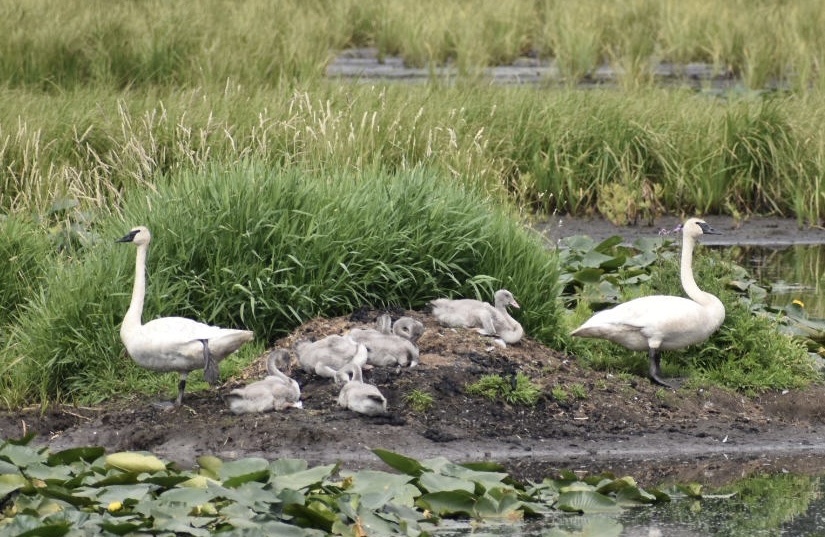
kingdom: Animalia
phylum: Chordata
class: Aves
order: Anseriformes
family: Anatidae
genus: Cygnus
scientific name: Cygnus buccinator
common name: Trumpeter swan
